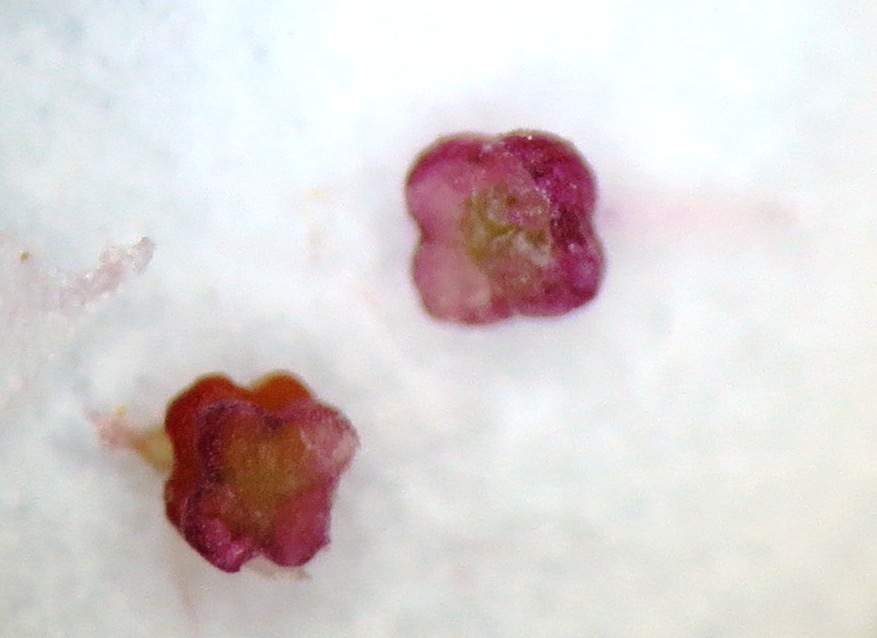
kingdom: Plantae
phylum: Tracheophyta
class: Magnoliopsida
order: Ericales
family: Ericaceae
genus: Erica
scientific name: Erica ericoides
